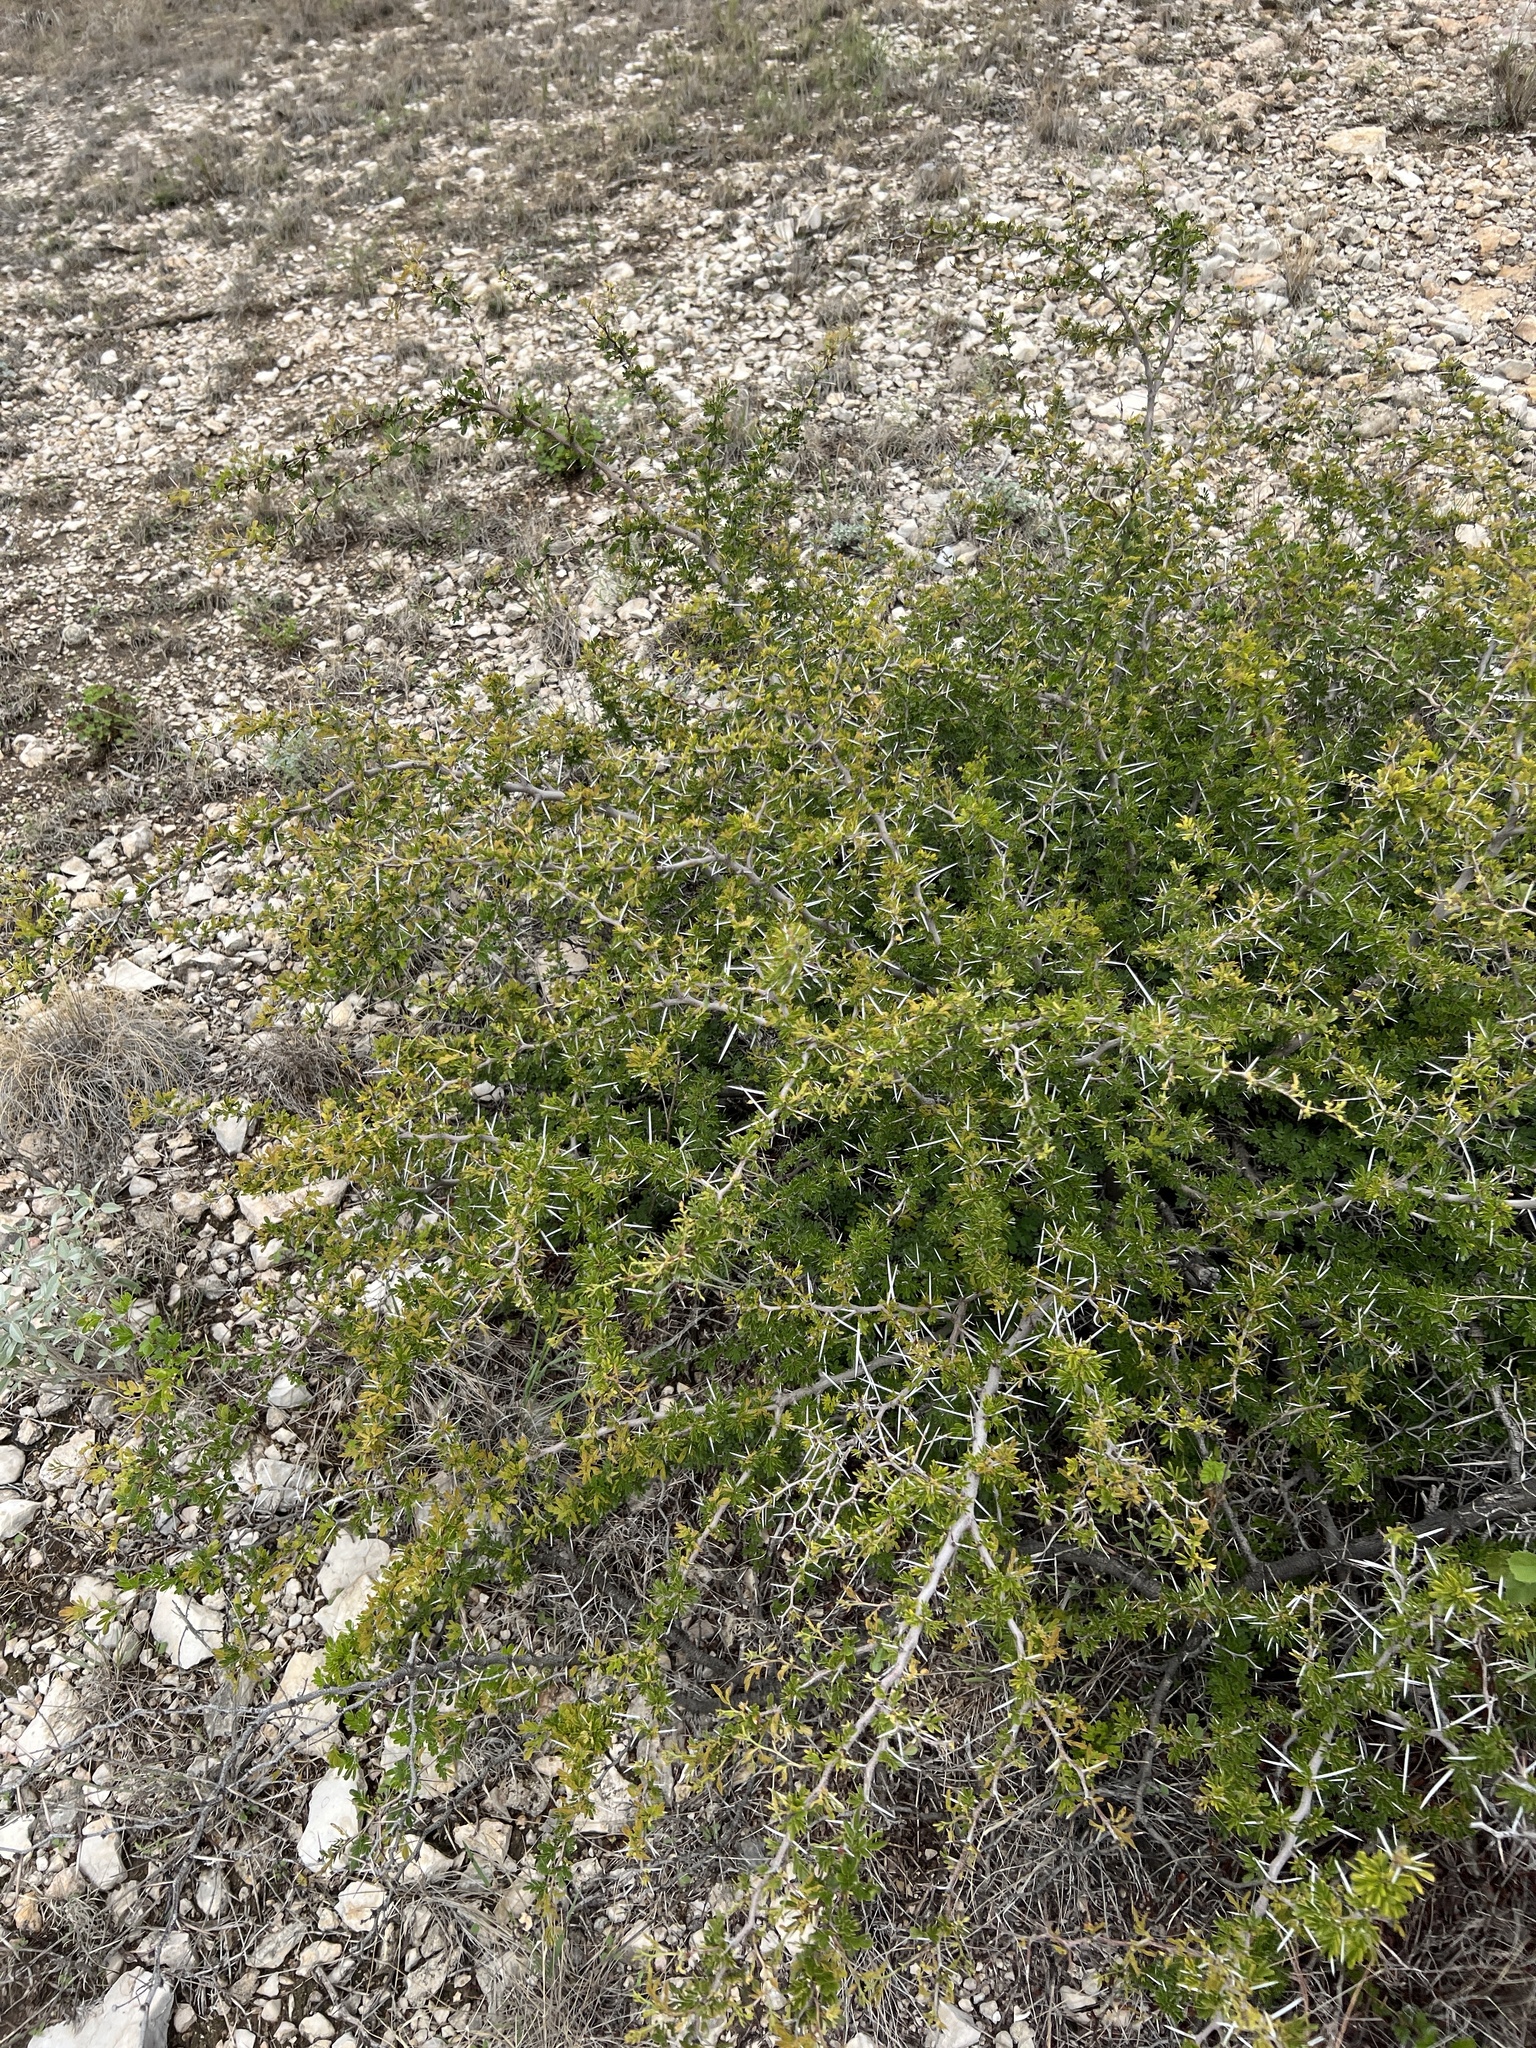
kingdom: Plantae
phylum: Tracheophyta
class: Magnoliopsida
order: Fabales
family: Fabaceae
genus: Vachellia
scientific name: Vachellia rigidula
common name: Blackbrush
